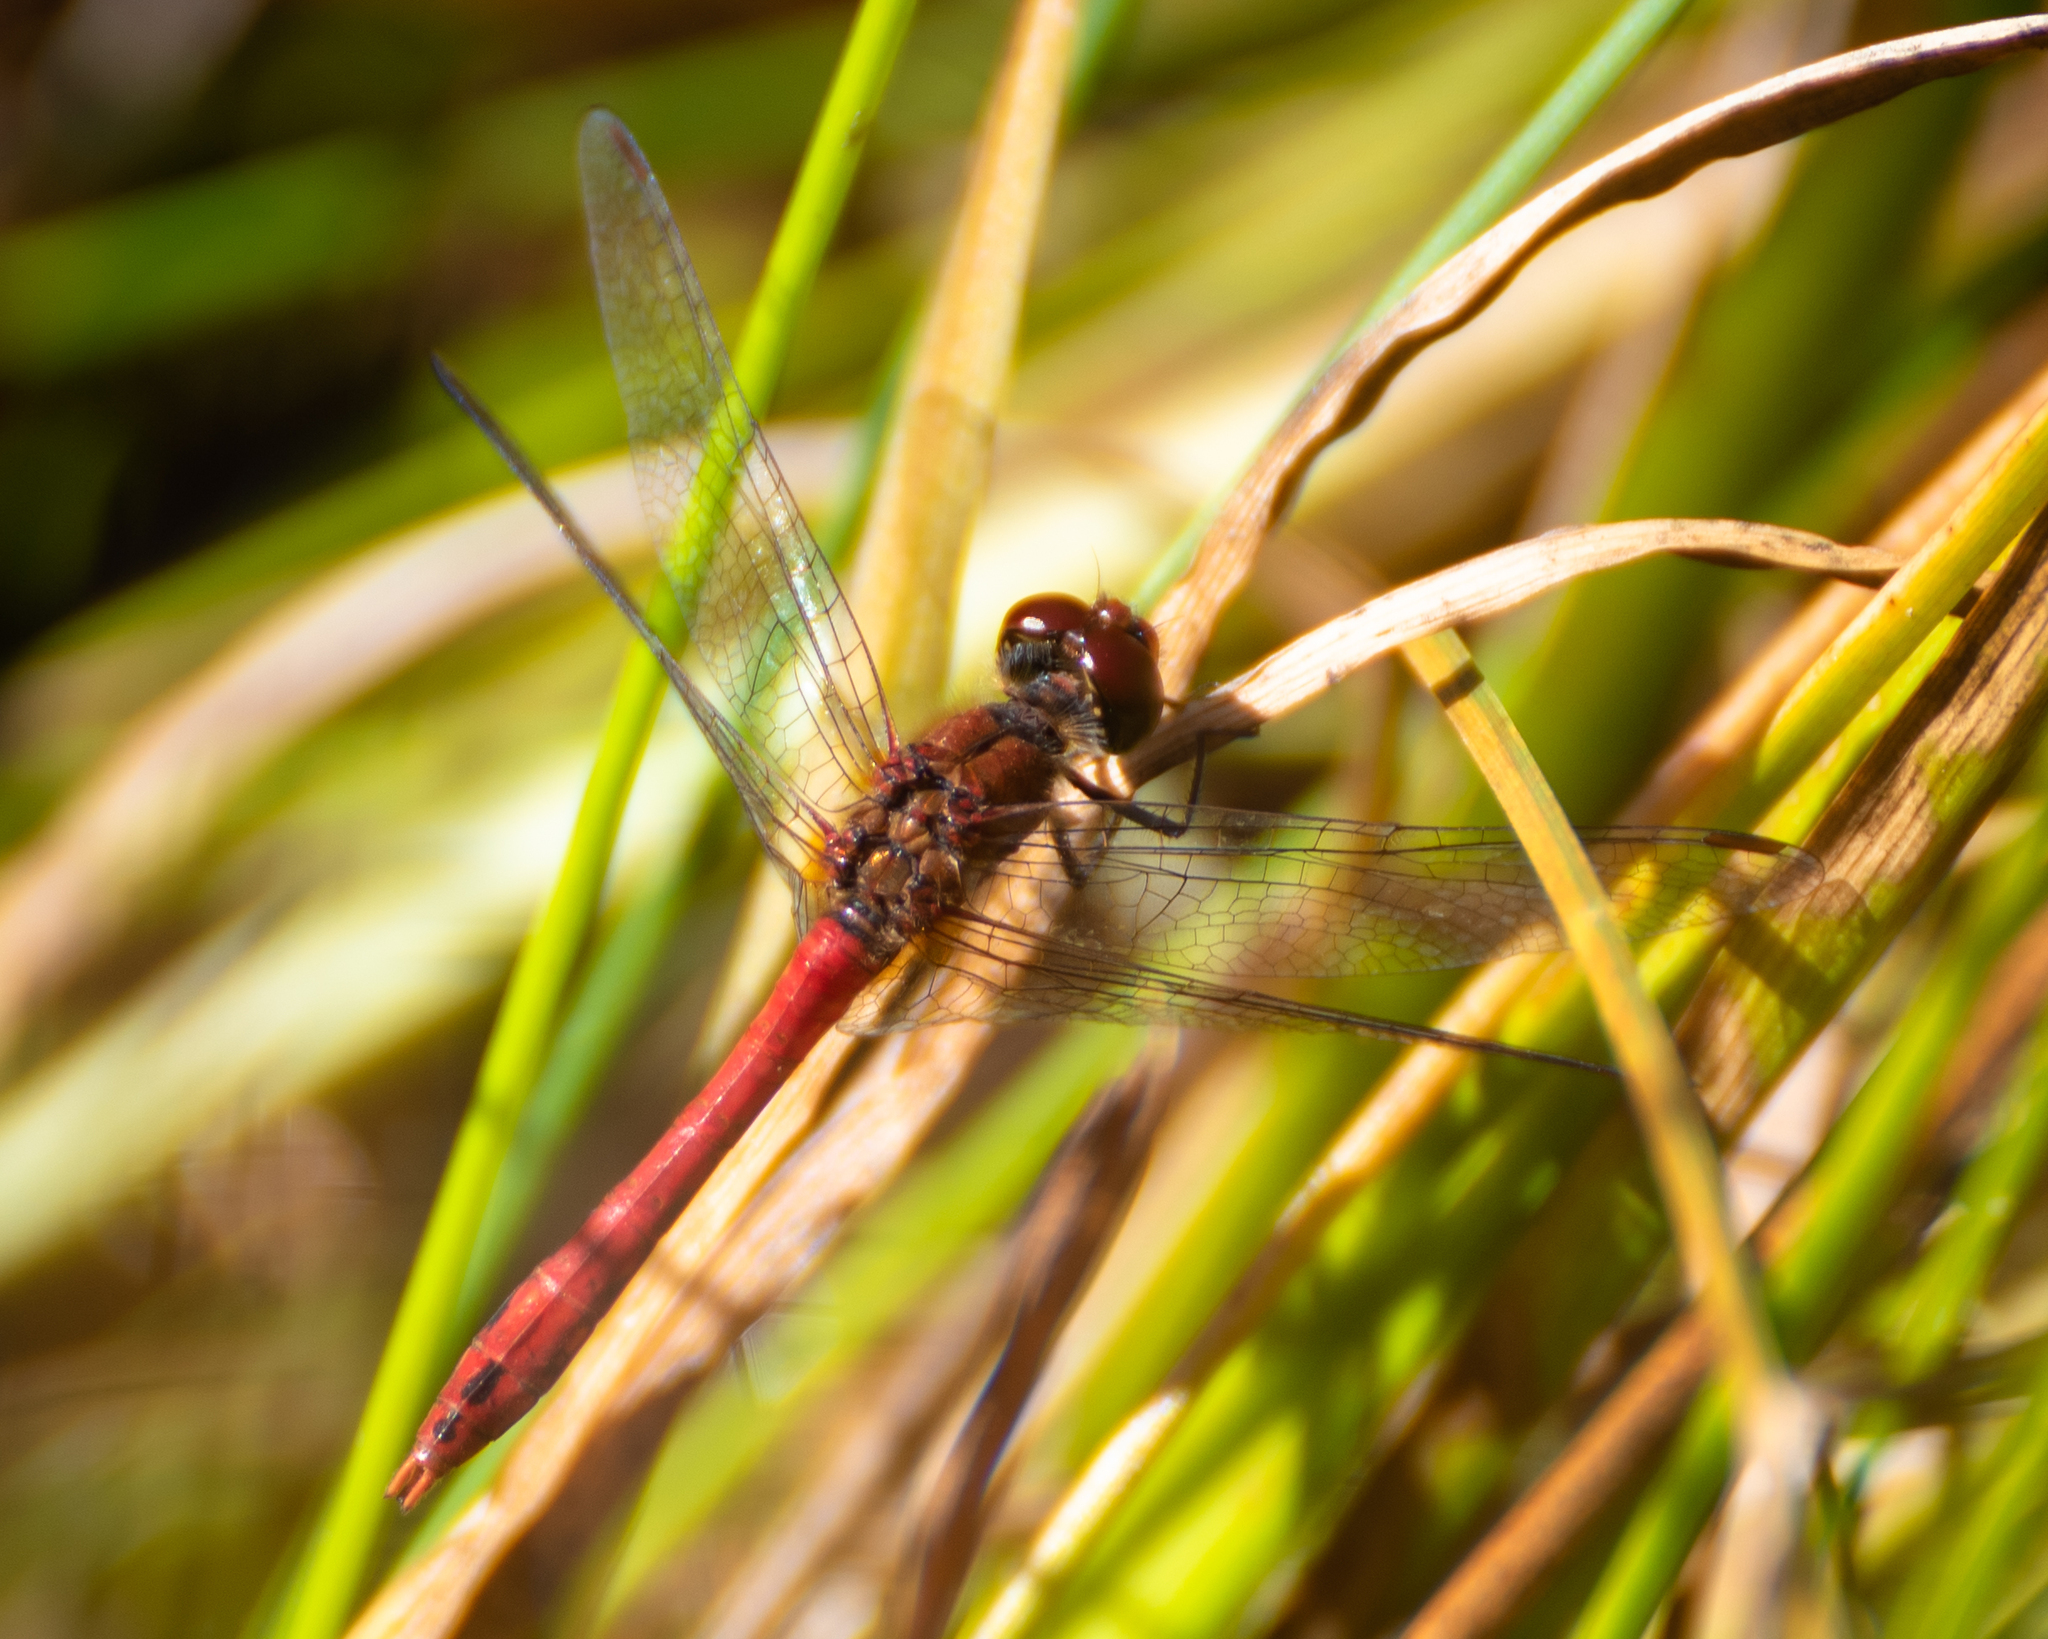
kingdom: Animalia
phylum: Arthropoda
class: Insecta
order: Odonata
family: Libellulidae
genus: Sympetrum
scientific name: Sympetrum sanguineum
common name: Ruddy darter
